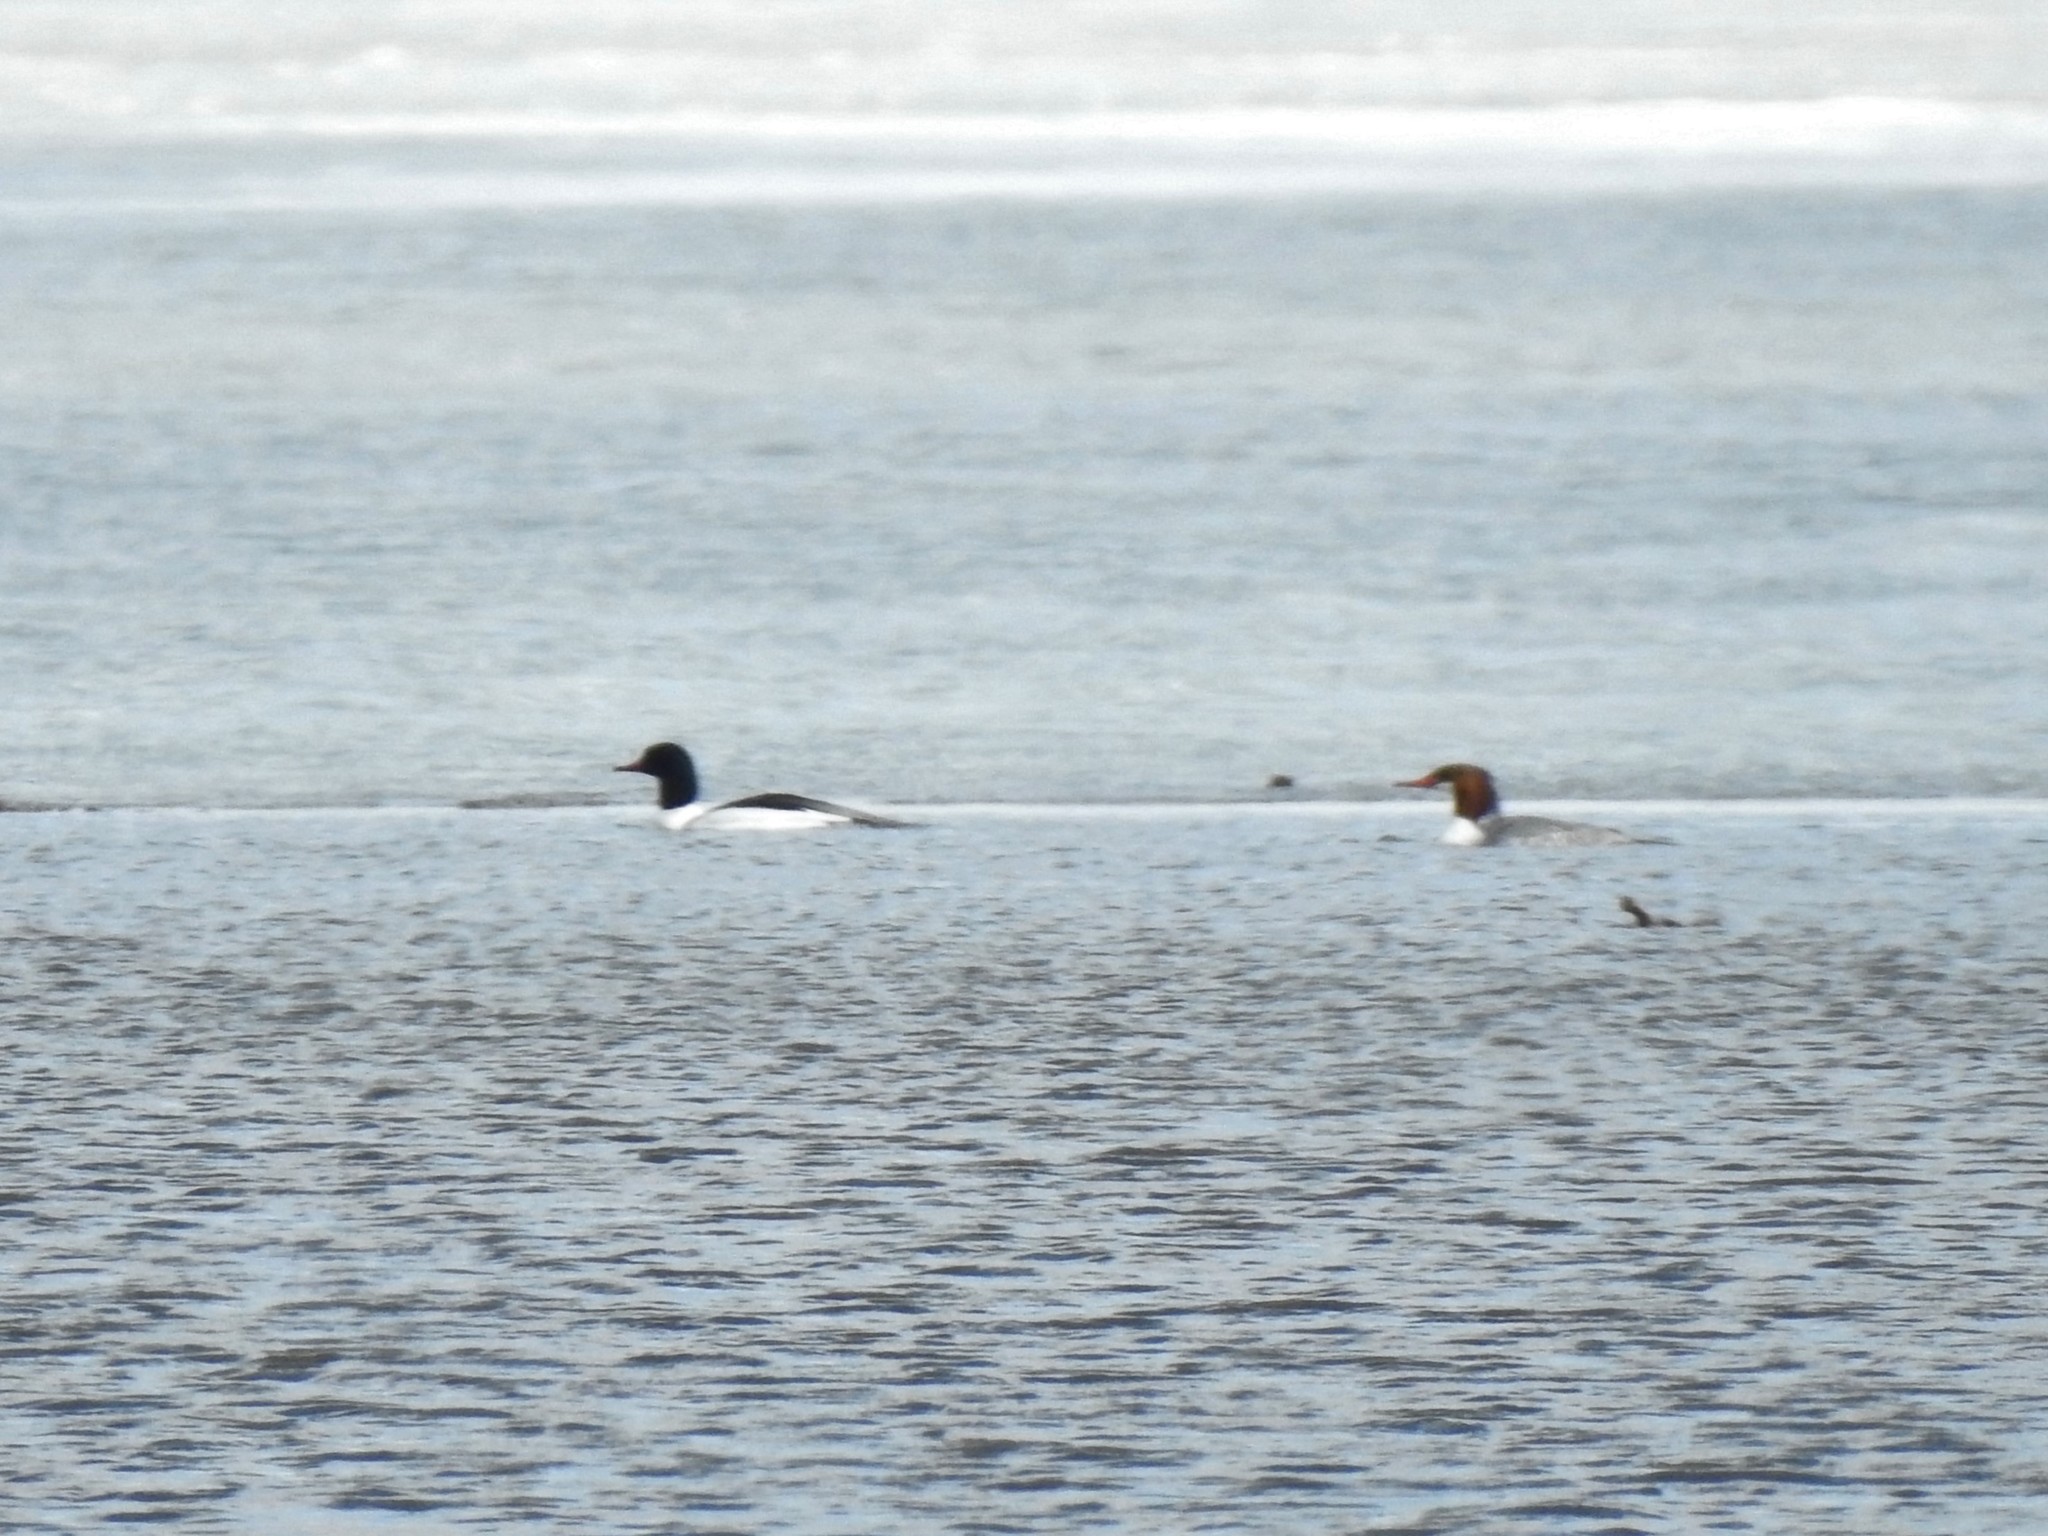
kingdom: Animalia
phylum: Chordata
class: Aves
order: Anseriformes
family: Anatidae
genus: Mergus
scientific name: Mergus merganser
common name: Common merganser
